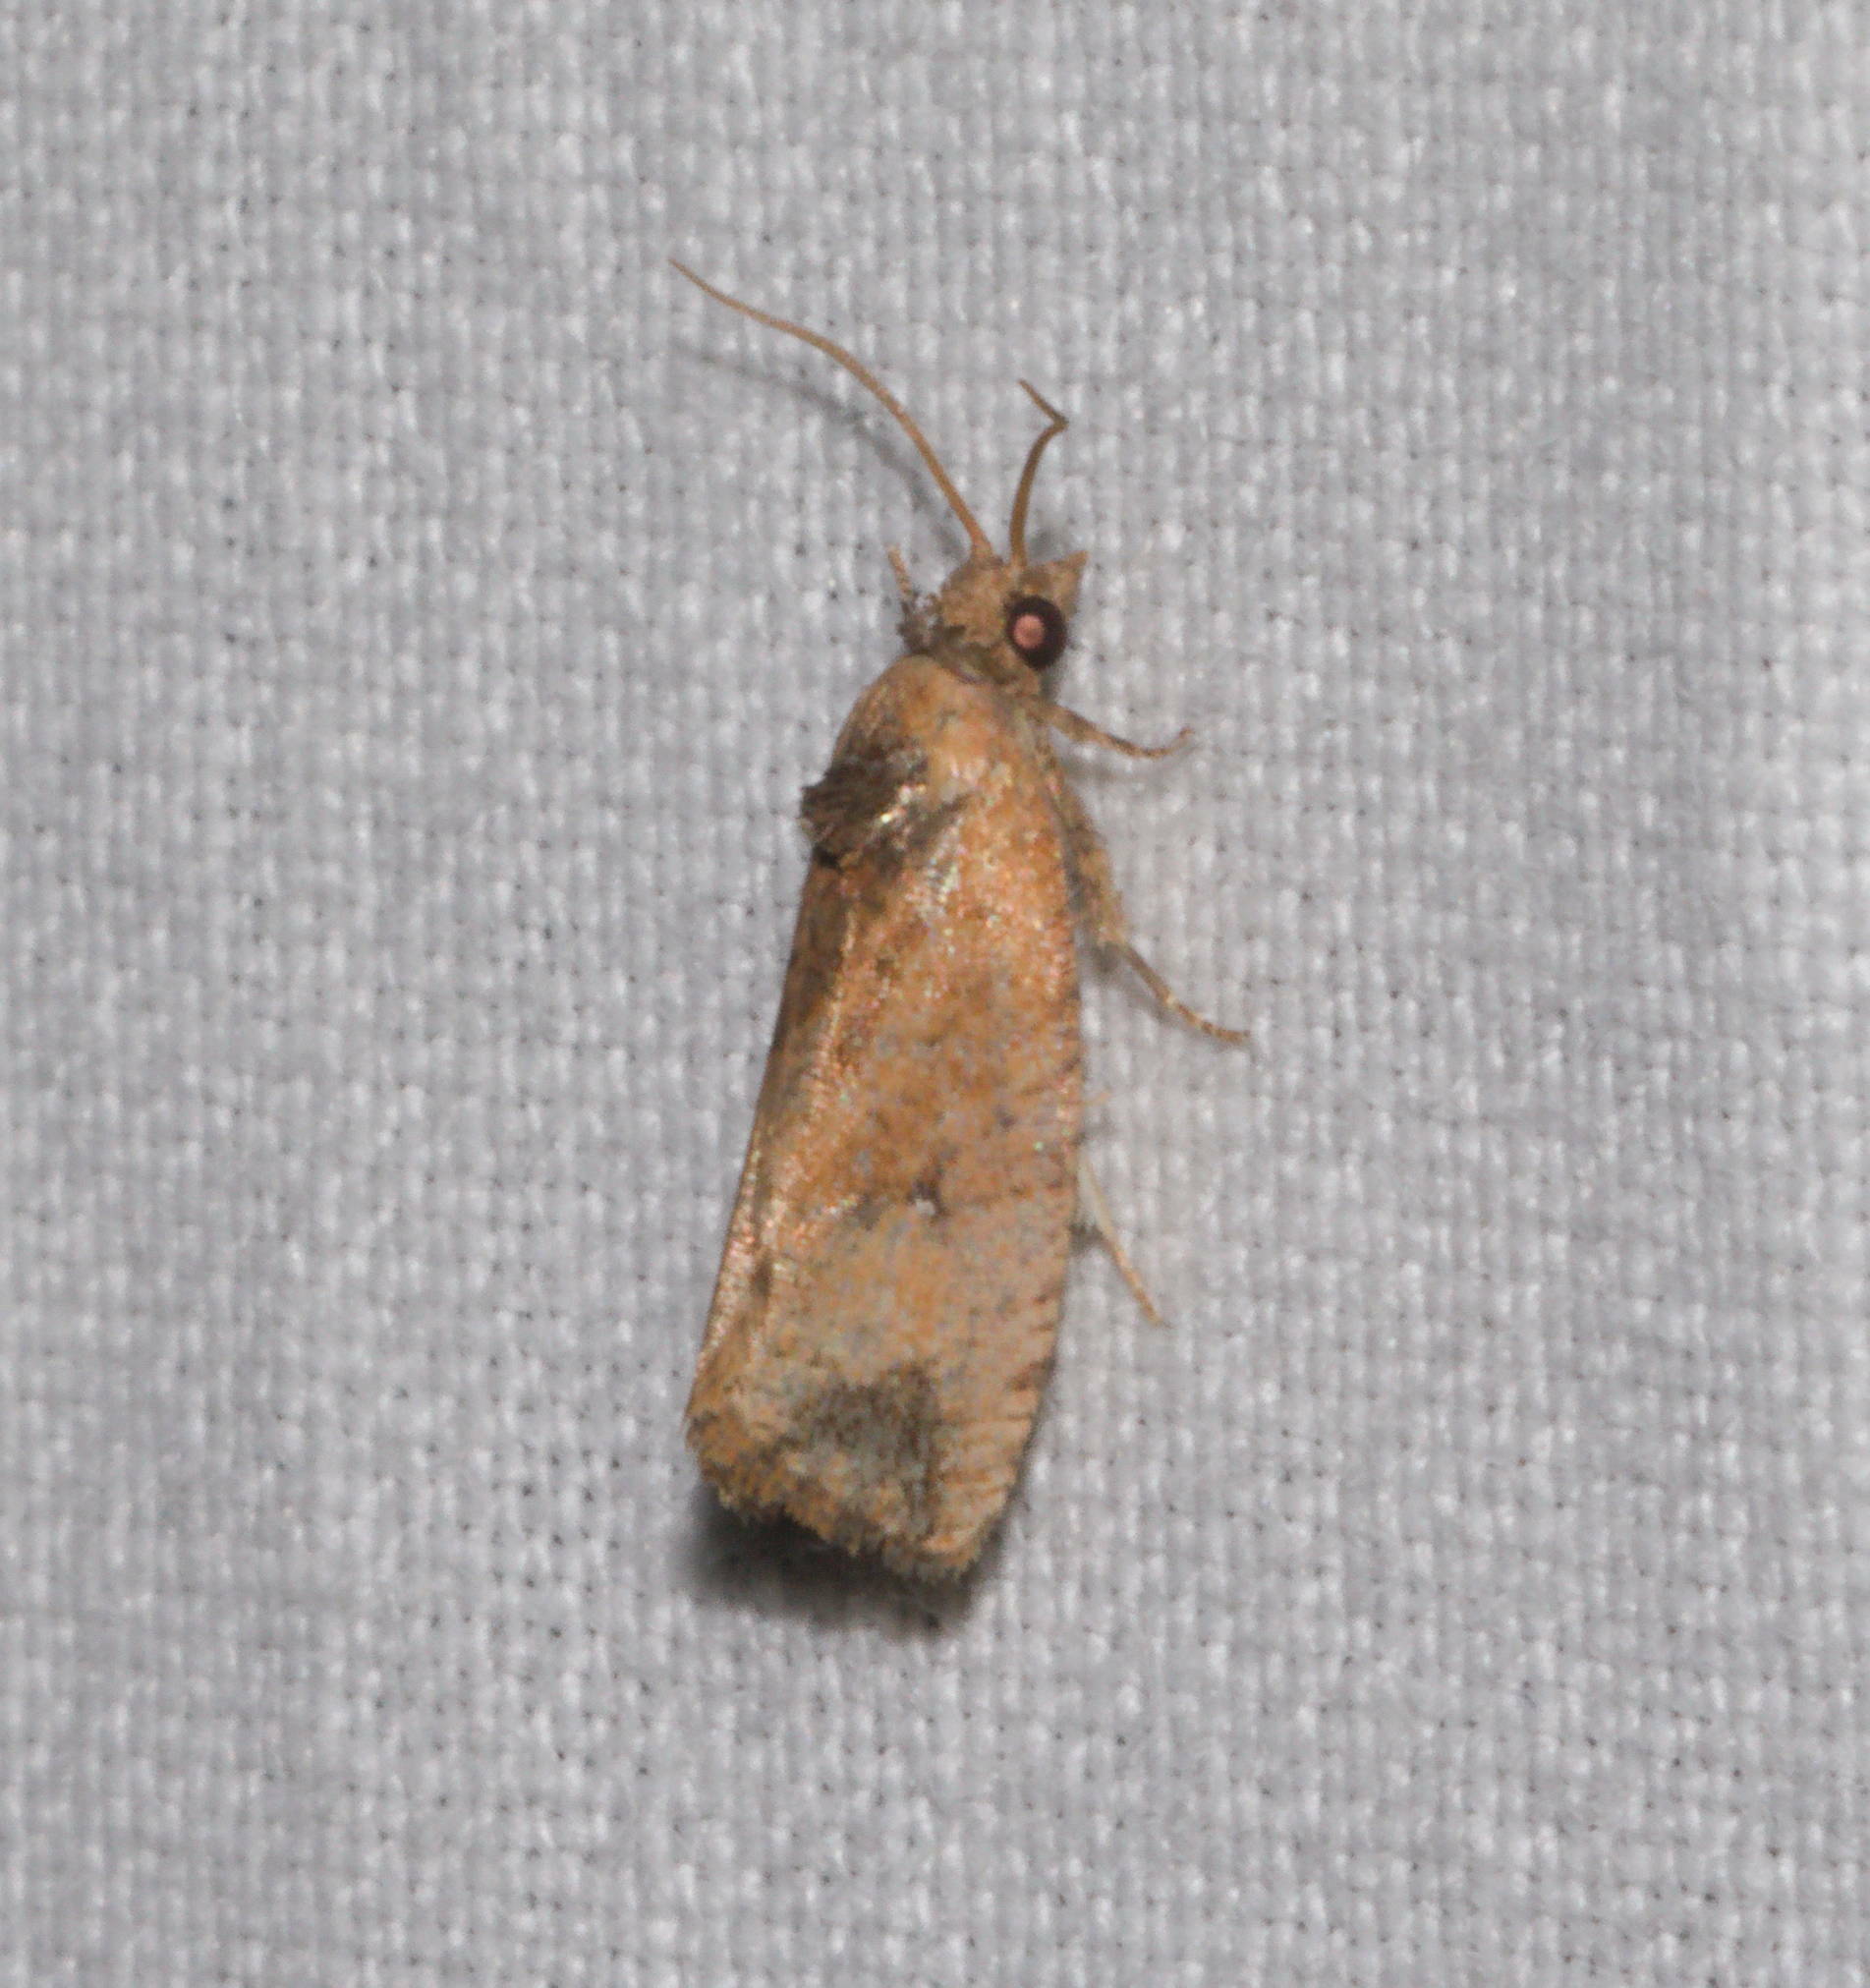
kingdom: Animalia
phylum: Arthropoda
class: Insecta
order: Lepidoptera
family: Tortricidae
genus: Cryptophlebia
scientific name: Cryptophlebia illepida
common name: Moth
